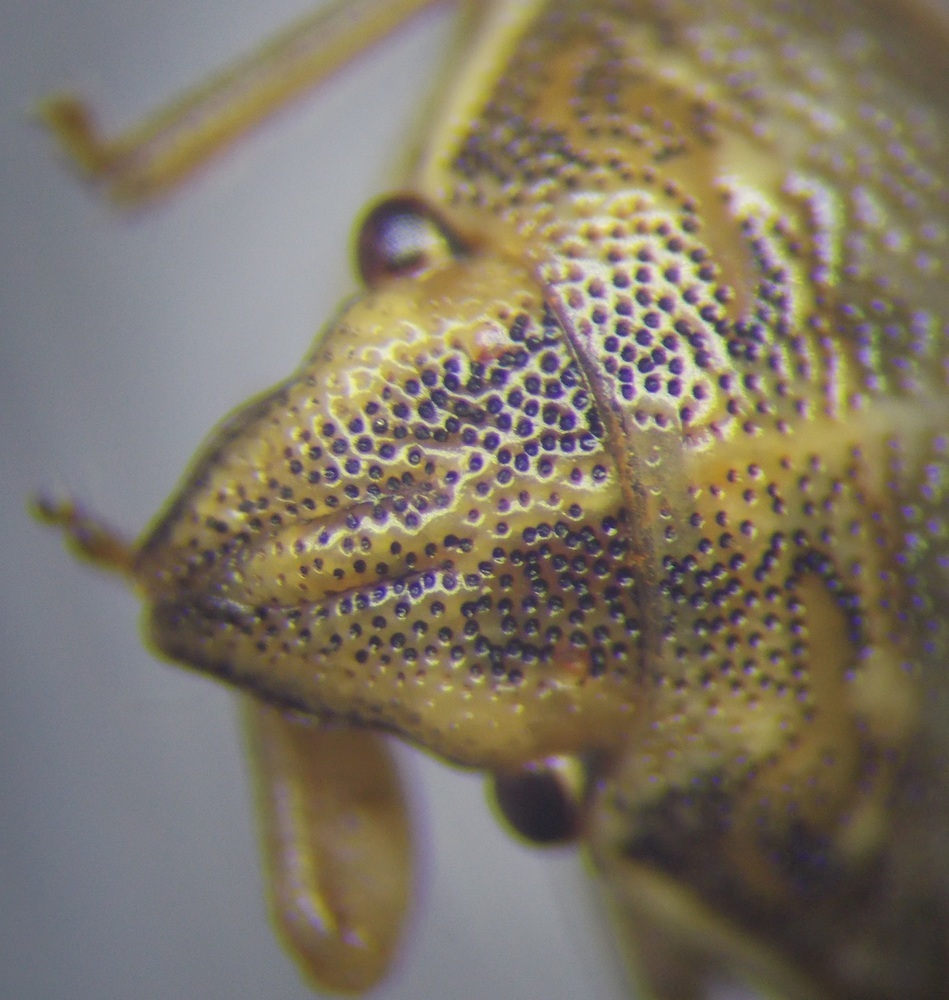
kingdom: Animalia
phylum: Arthropoda
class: Insecta
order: Hemiptera
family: Pentatomidae
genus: Neottiglossa
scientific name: Neottiglossa leporina
